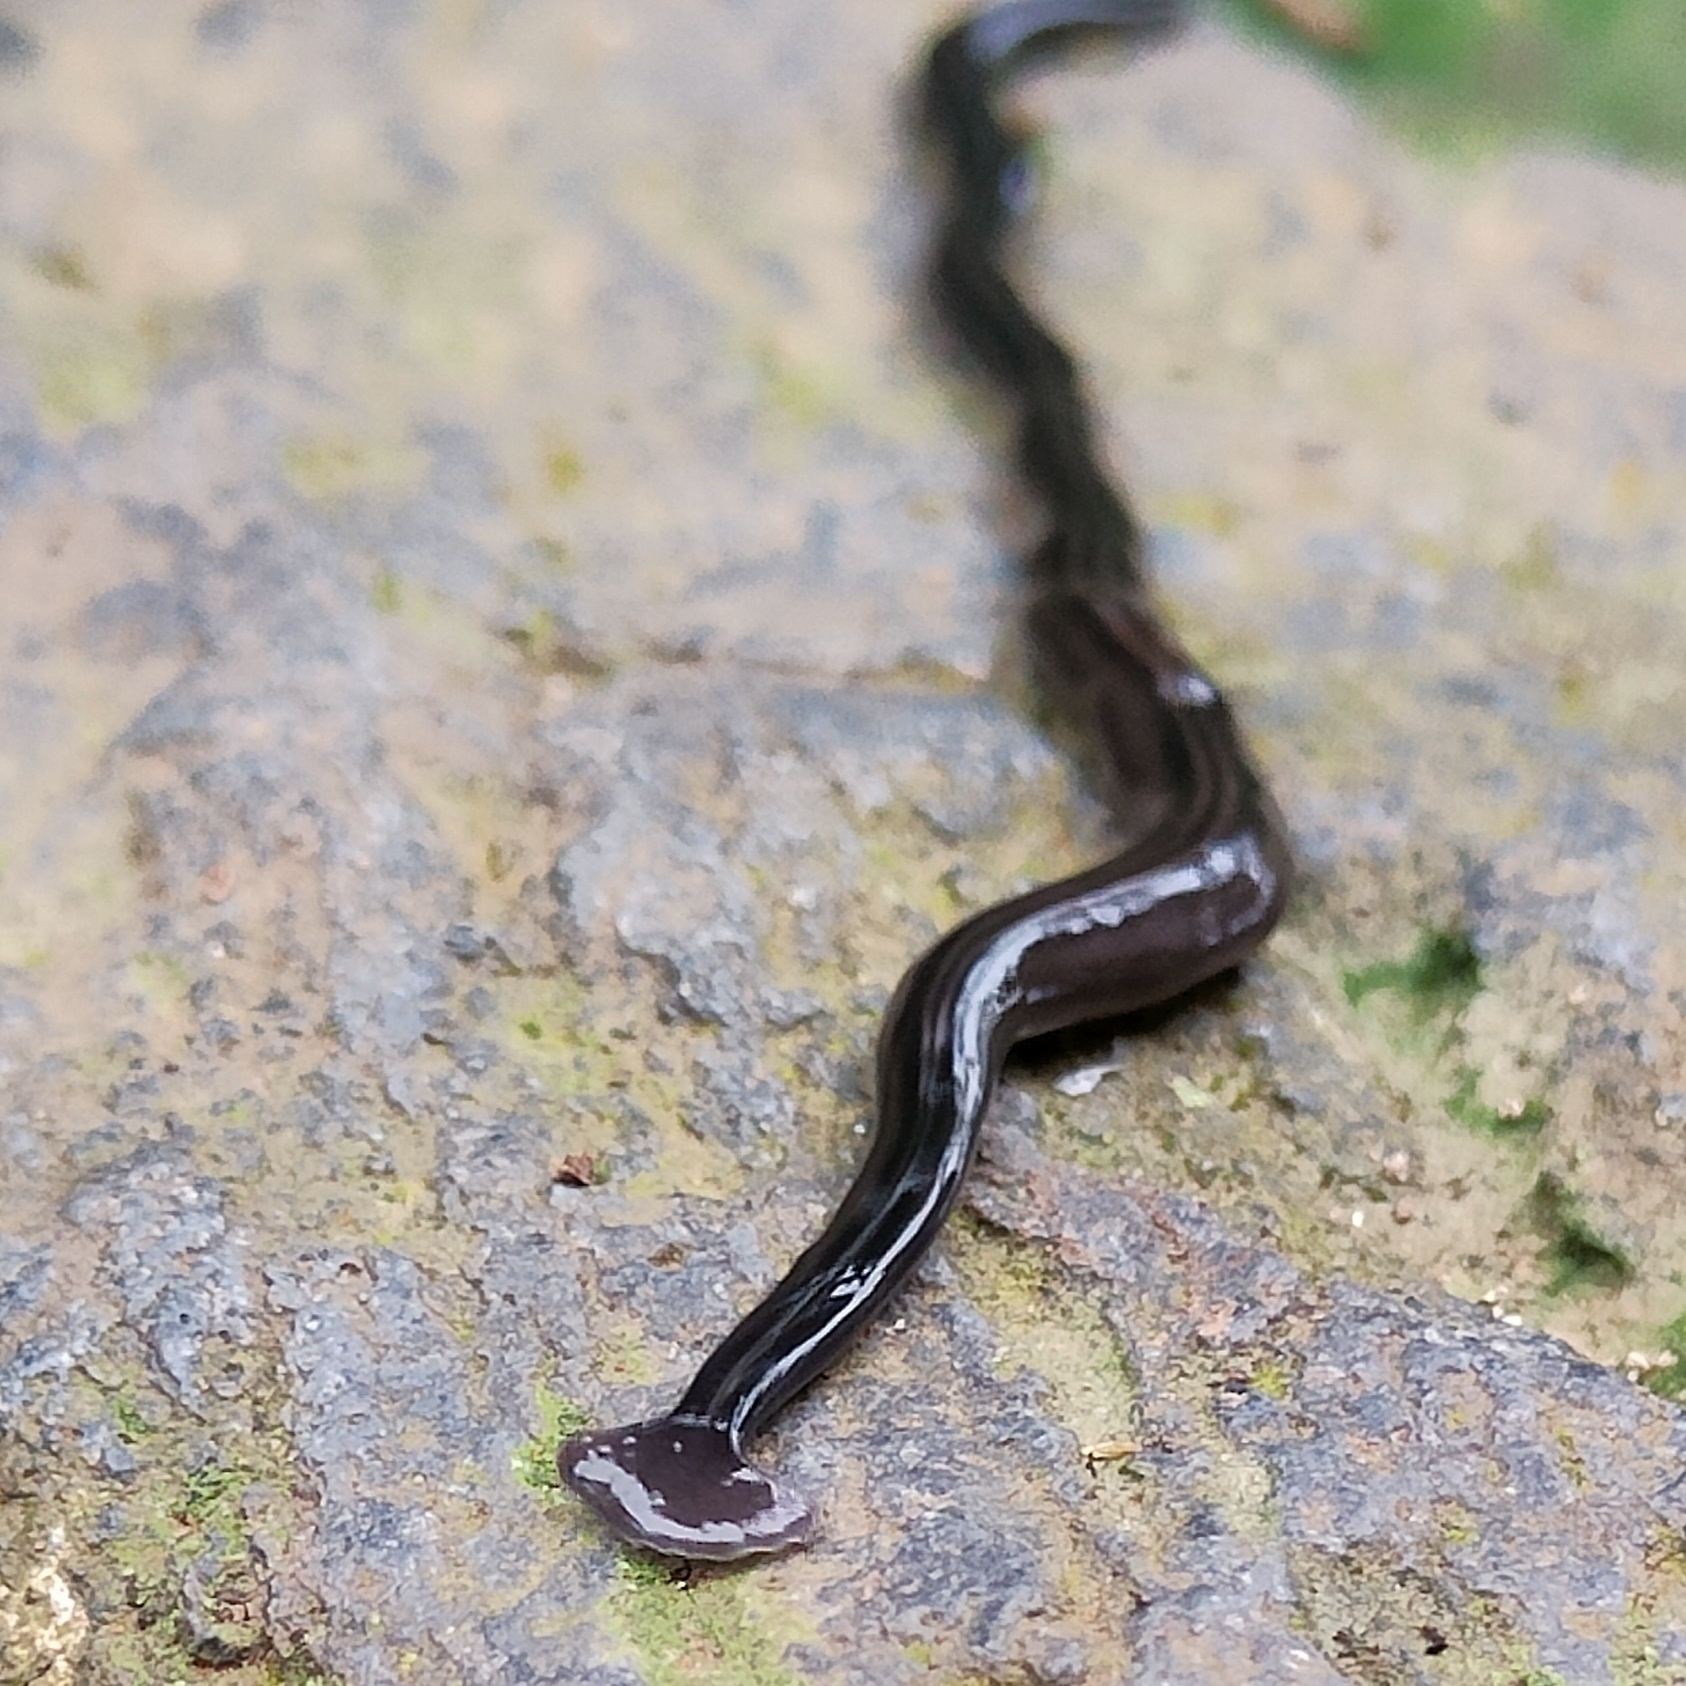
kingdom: Animalia
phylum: Platyhelminthes
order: Tricladida
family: Geoplanidae
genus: Bipalium
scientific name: Bipalium javanum
